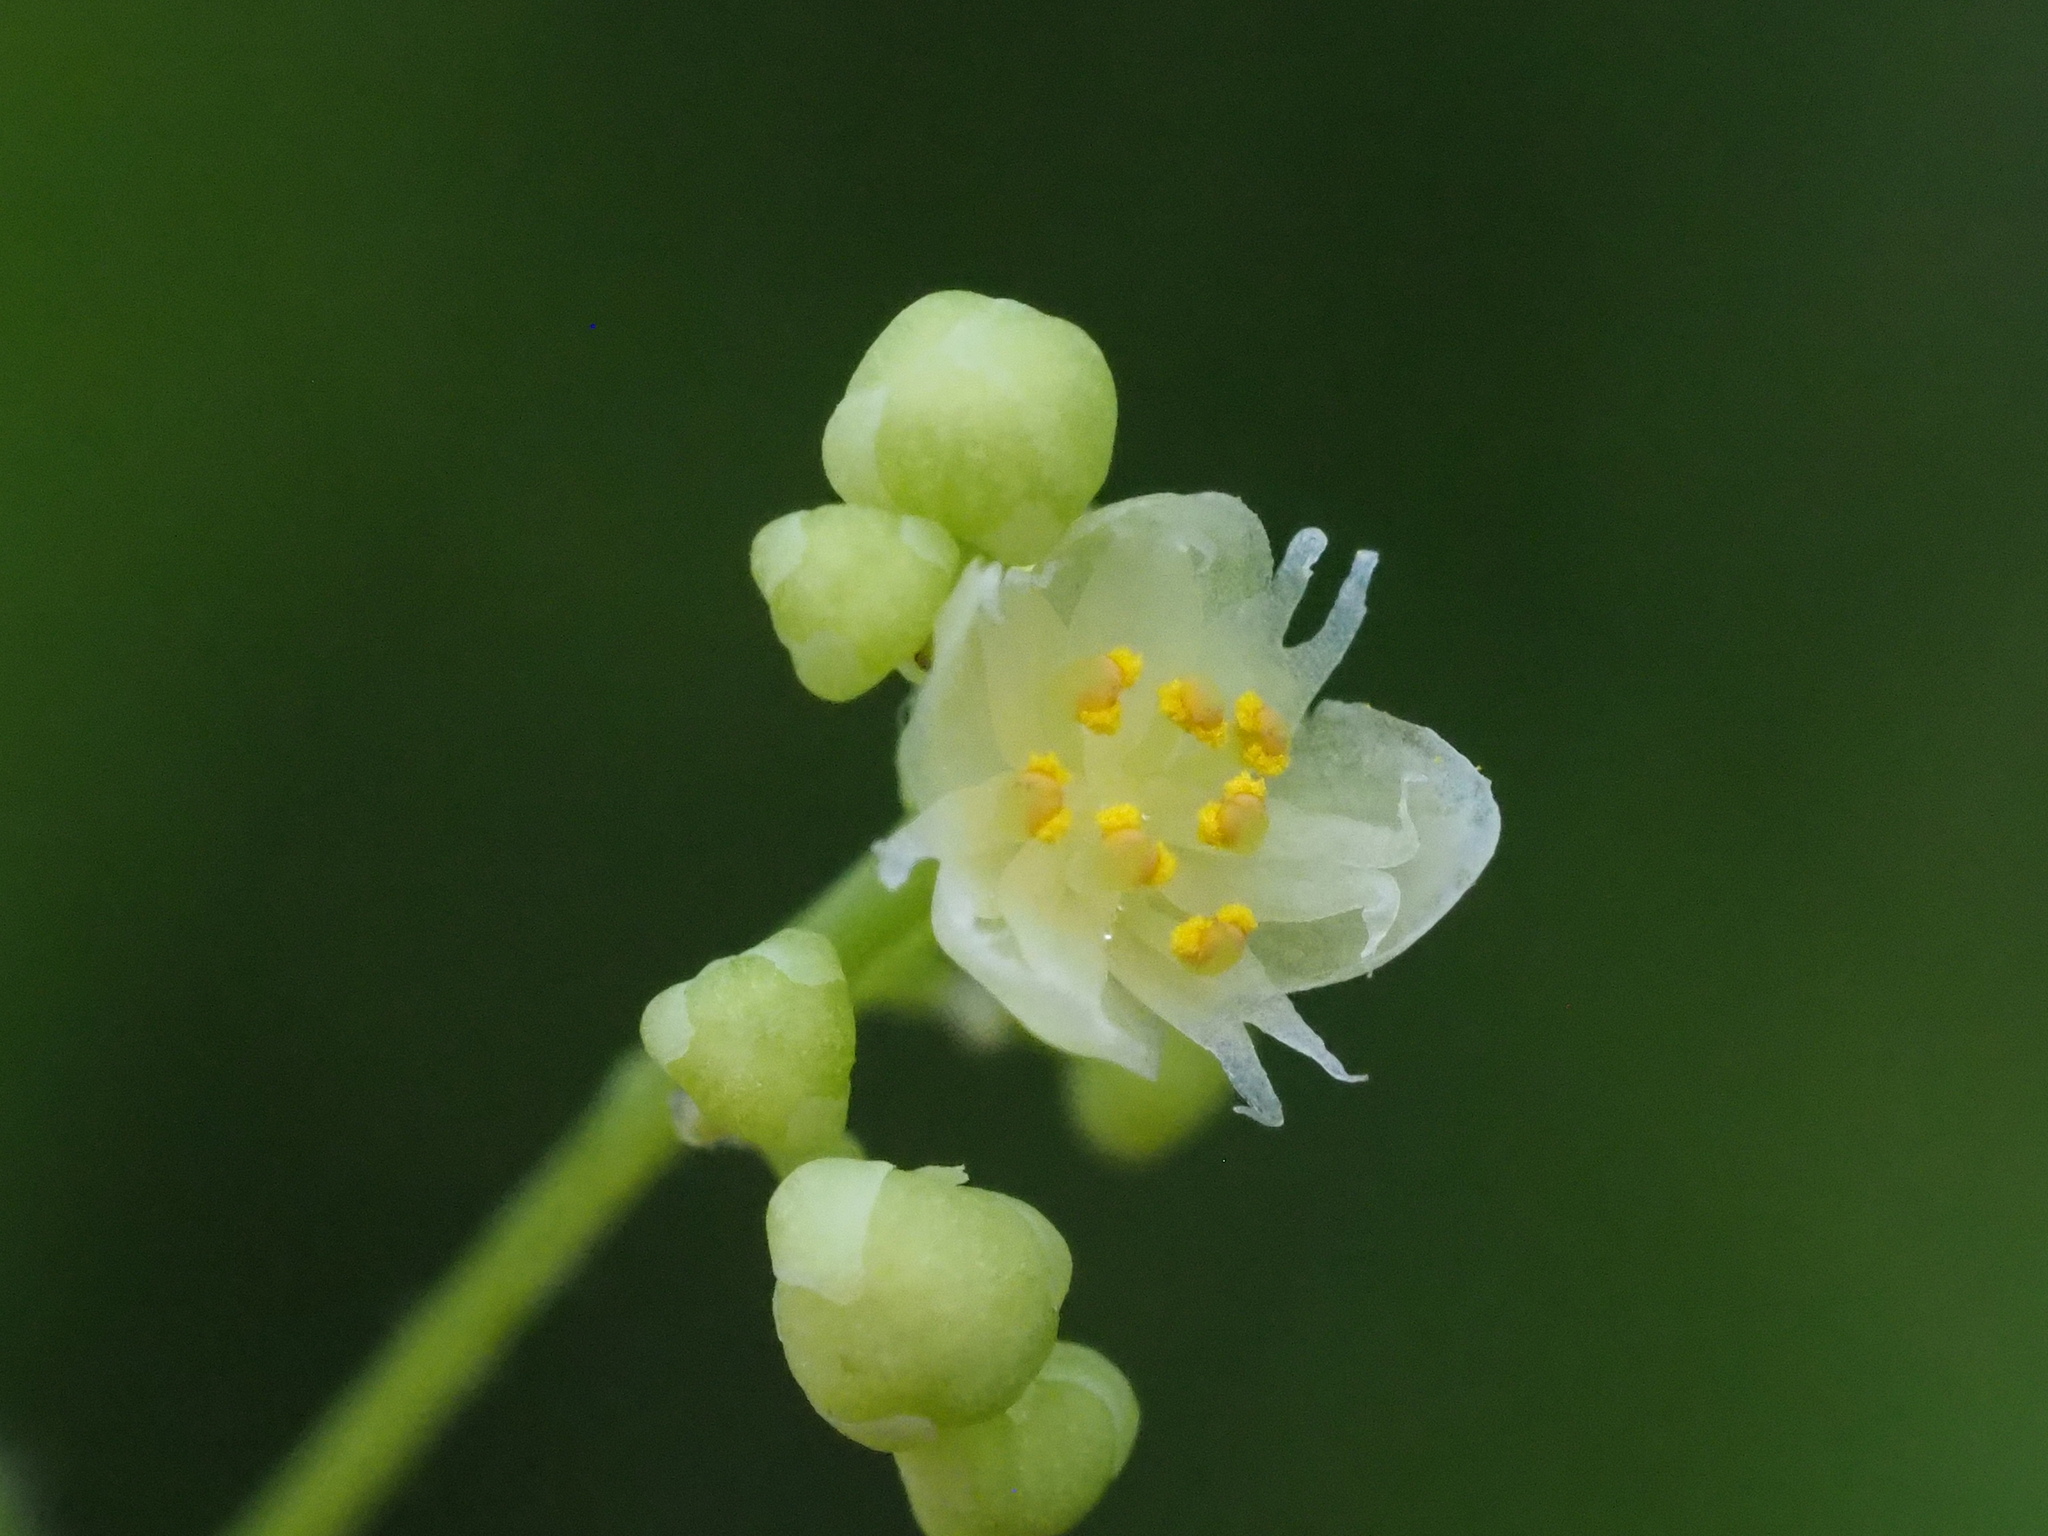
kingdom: Plantae
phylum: Tracheophyta
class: Magnoliopsida
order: Ranunculales
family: Menispermaceae
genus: Cocculus
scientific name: Cocculus orbiculatus
